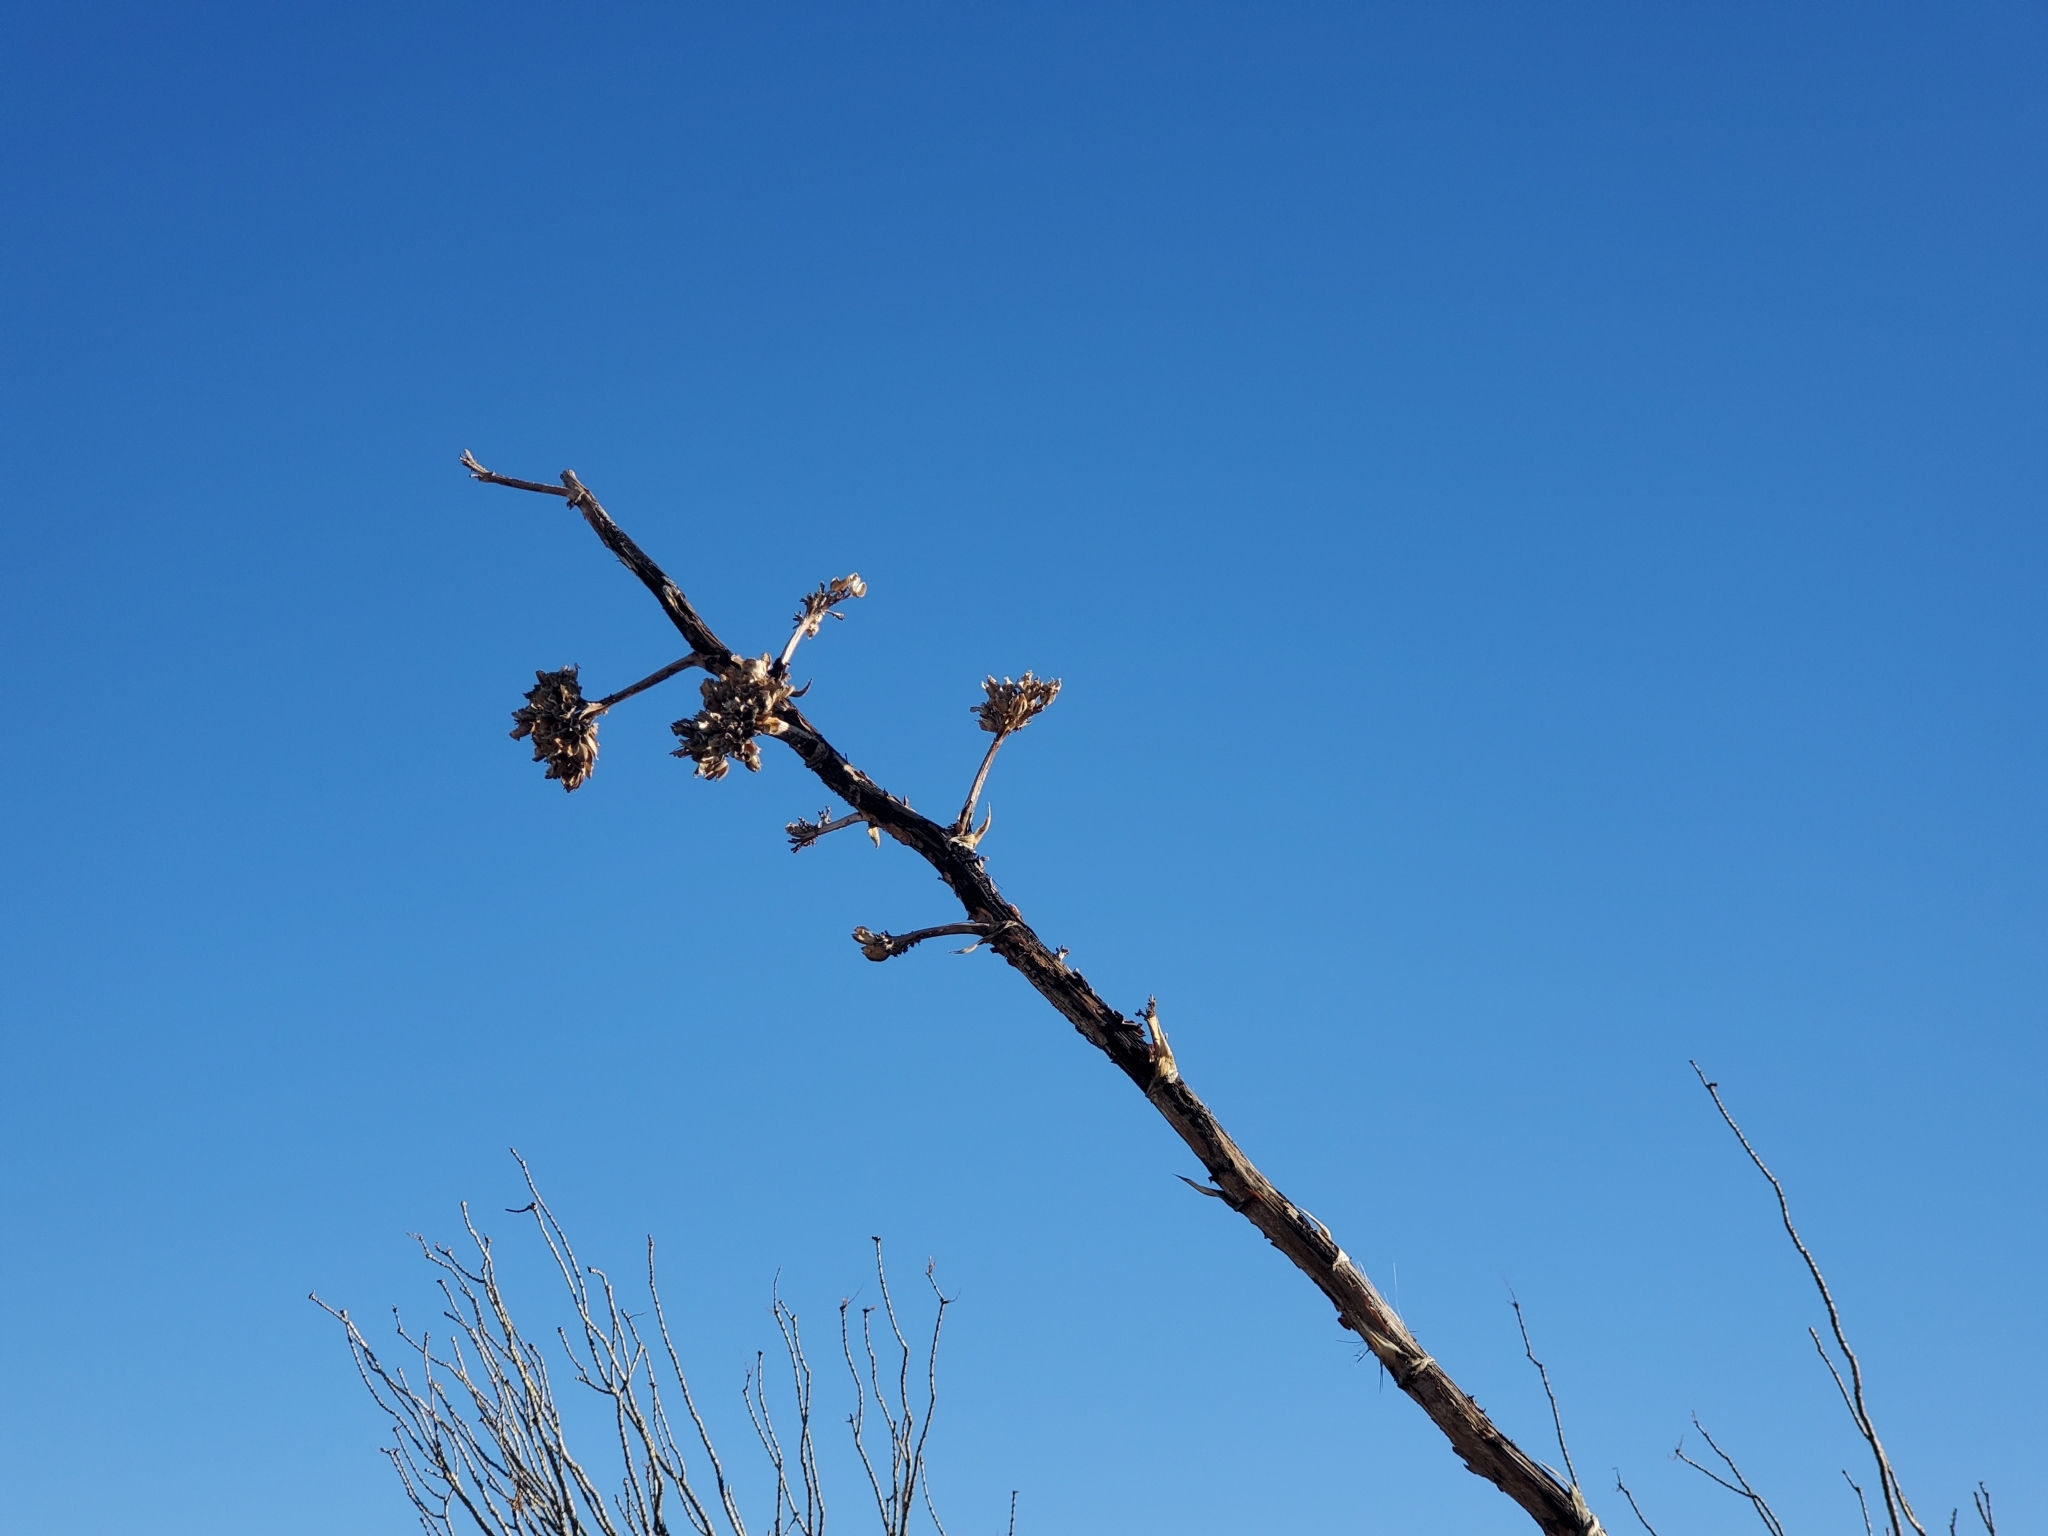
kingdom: Plantae
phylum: Tracheophyta
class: Liliopsida
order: Asparagales
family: Asparagaceae
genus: Agave
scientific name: Agave deserti
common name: Desert agave
